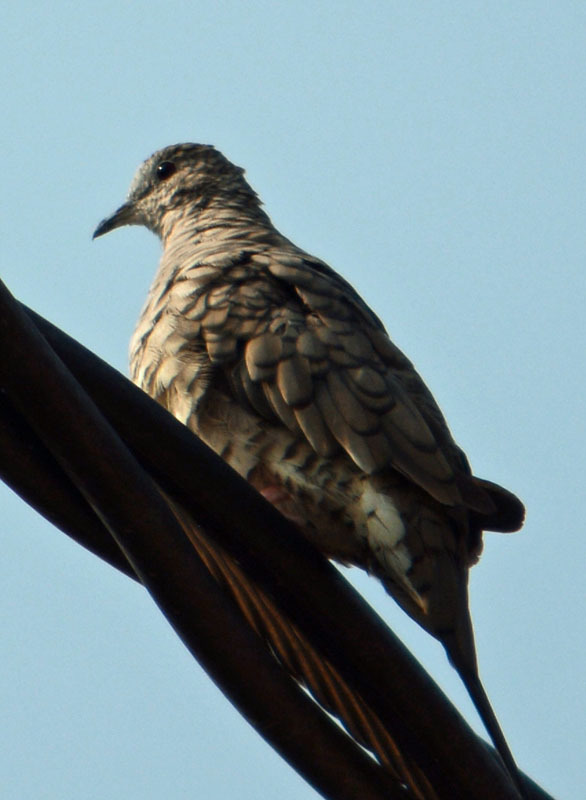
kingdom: Animalia
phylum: Chordata
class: Aves
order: Columbiformes
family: Columbidae
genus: Columbina
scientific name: Columbina inca
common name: Inca dove
